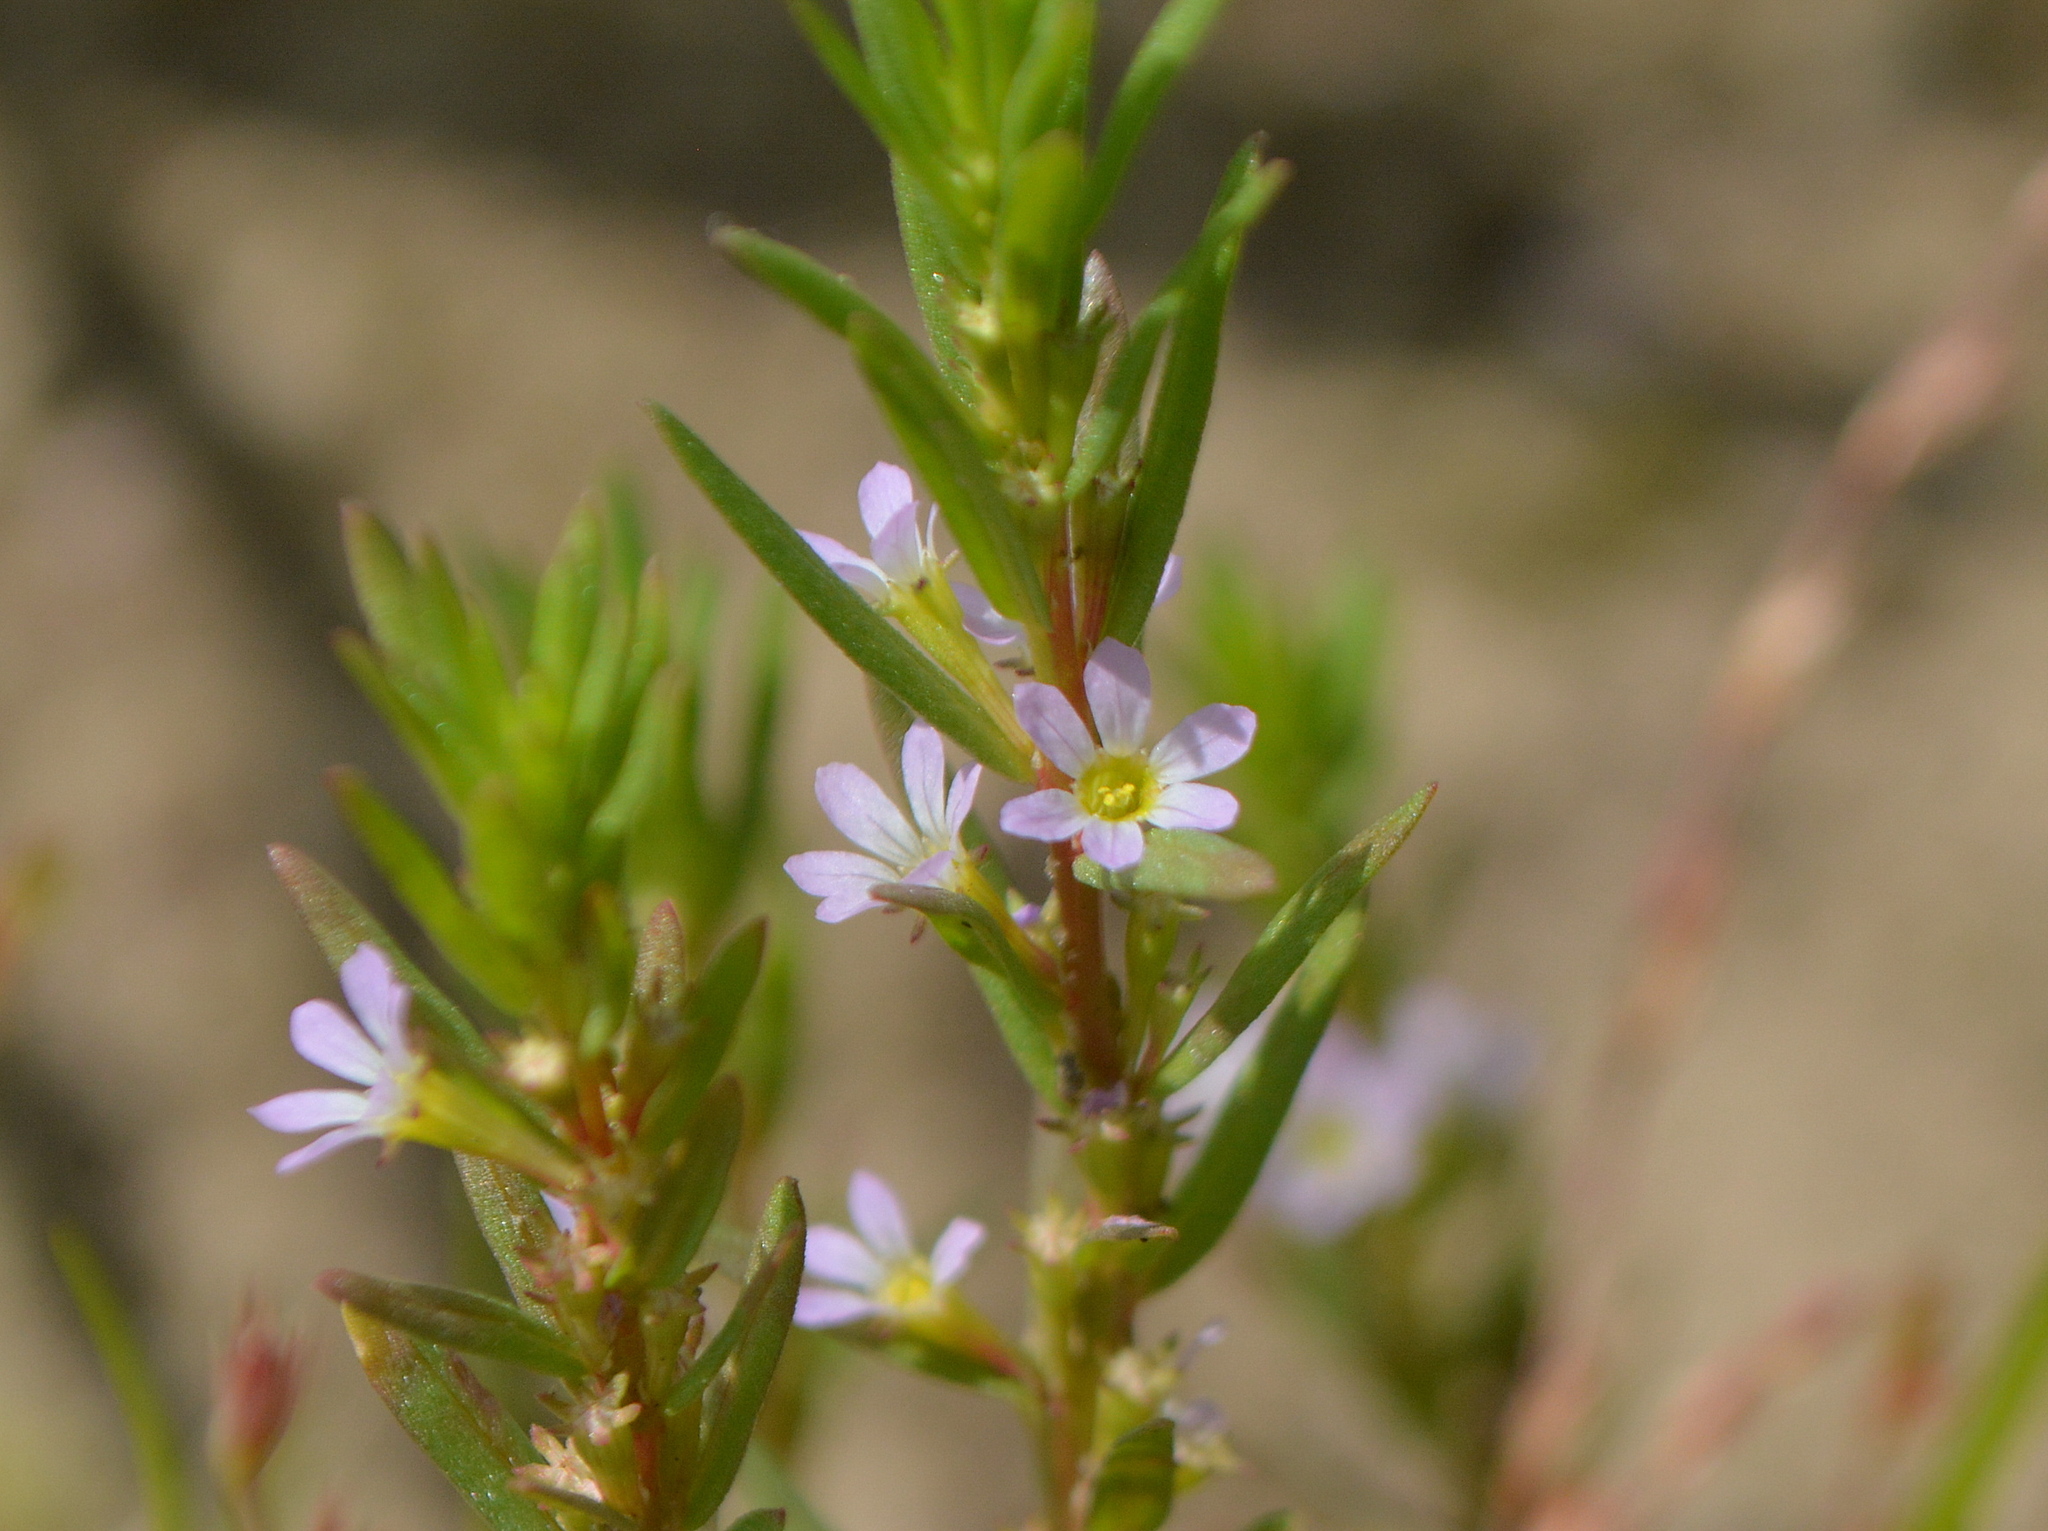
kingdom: Plantae
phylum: Tracheophyta
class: Magnoliopsida
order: Myrtales
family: Lythraceae
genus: Lythrum
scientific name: Lythrum hyssopifolia
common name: Grass-poly
